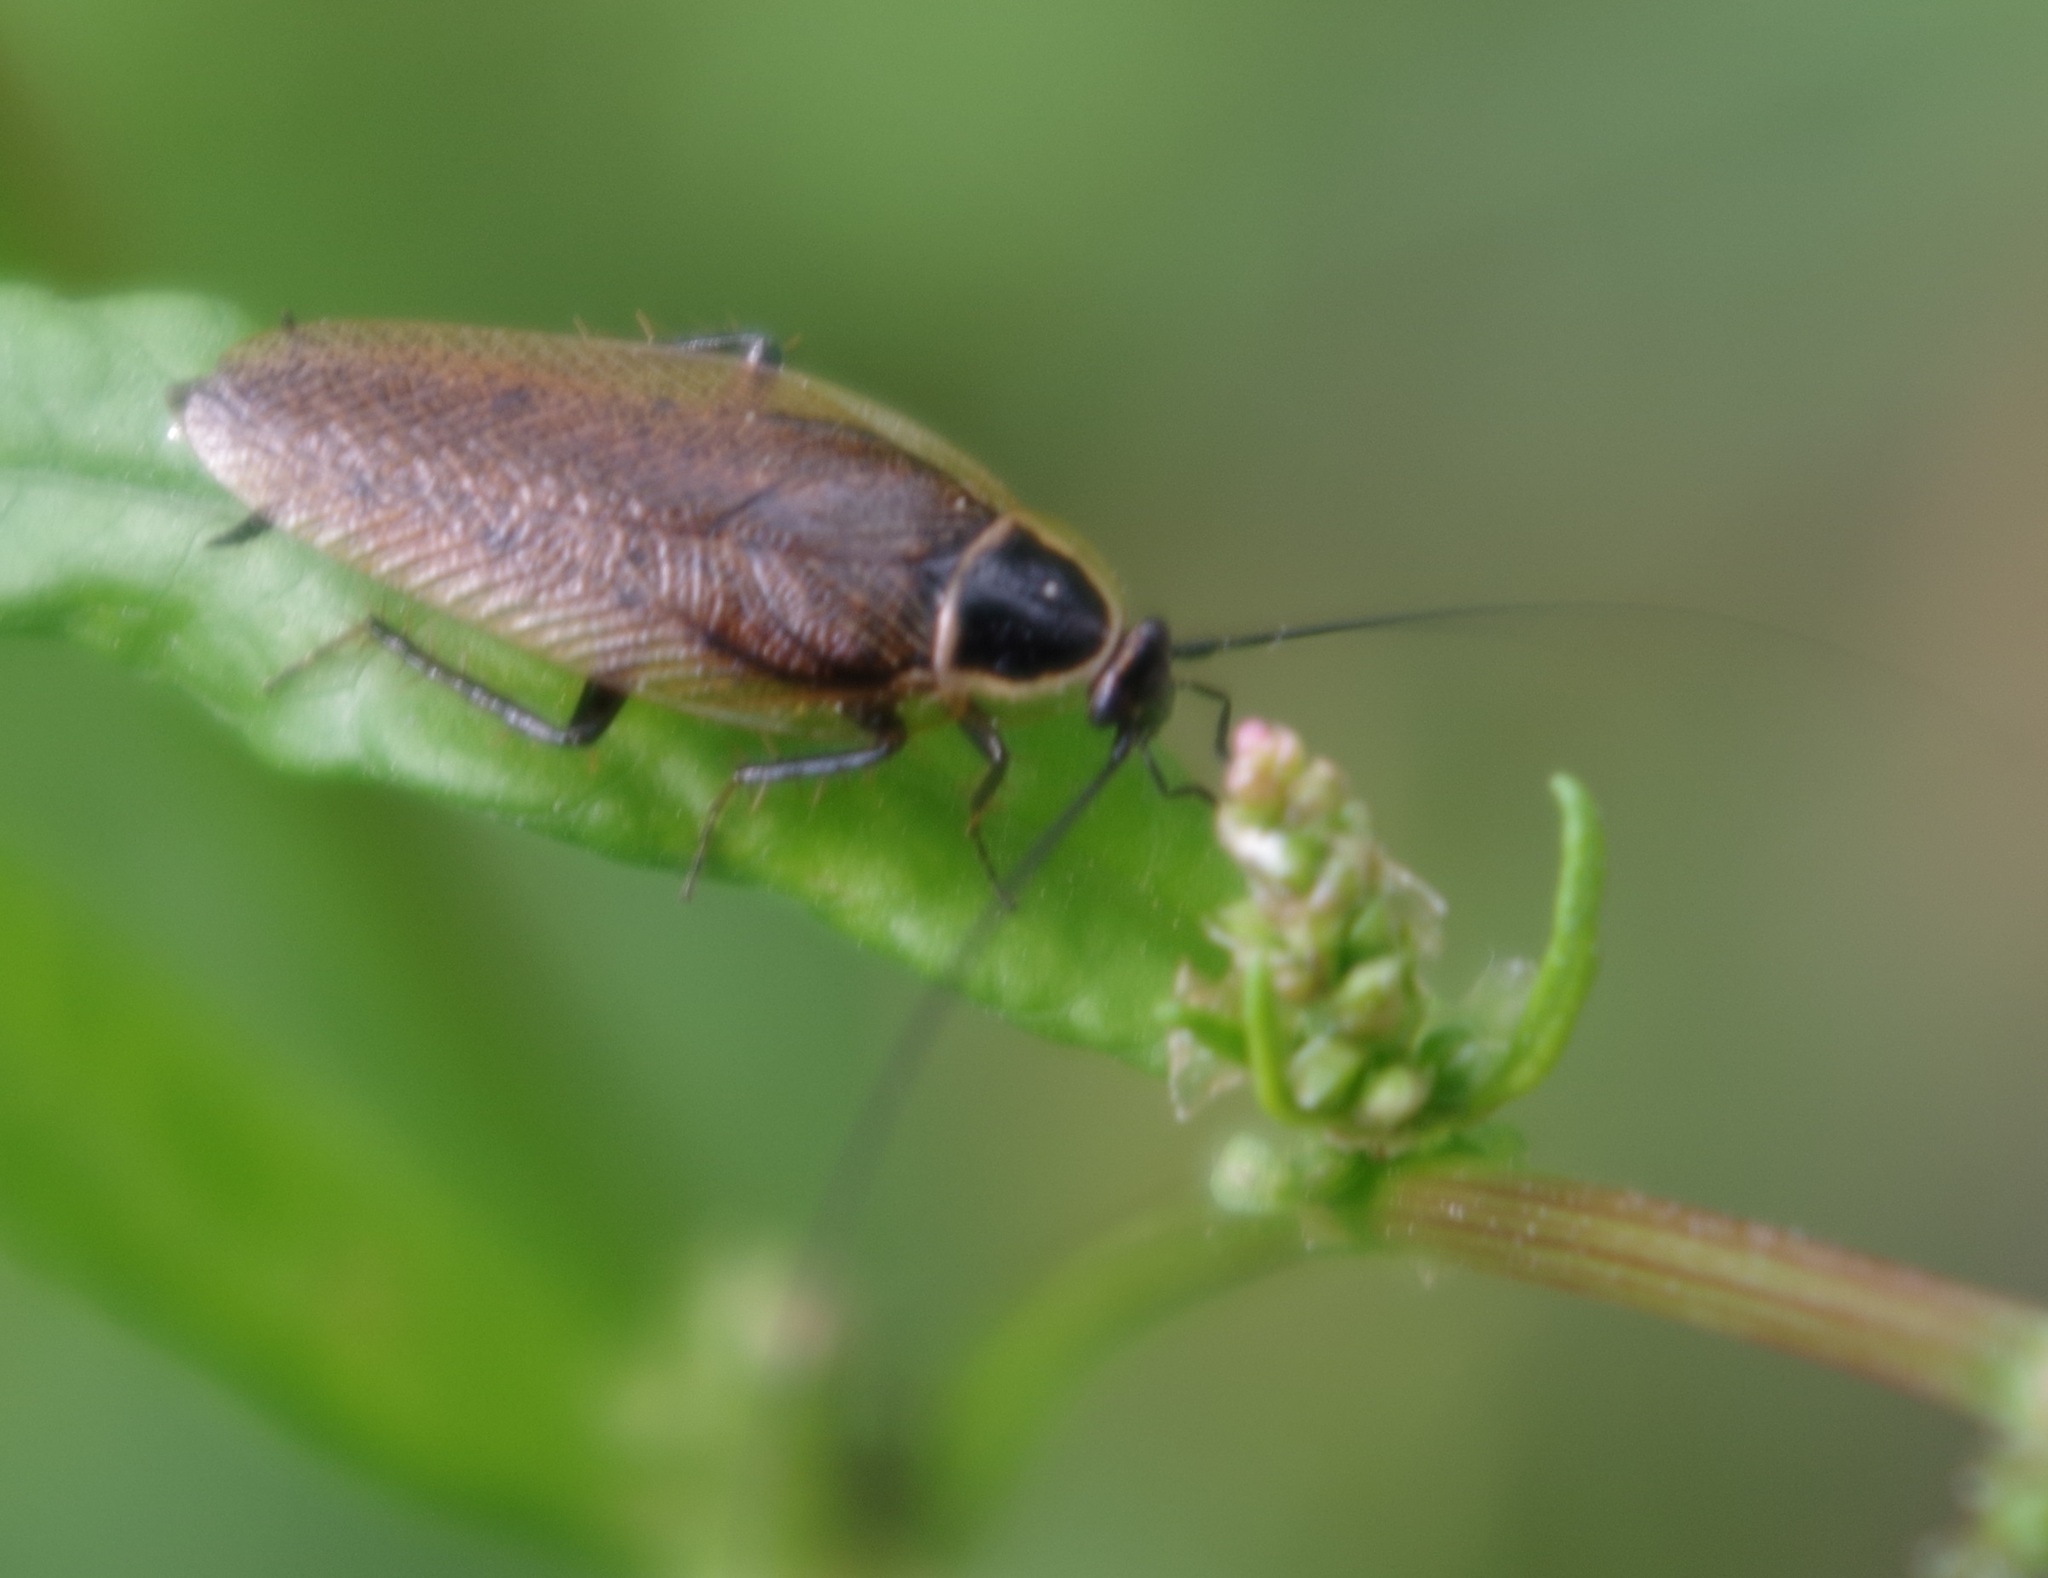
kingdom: Animalia
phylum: Arthropoda
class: Insecta
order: Blattodea
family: Ectobiidae
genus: Ectobius
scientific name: Ectobius sylvestris
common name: Forest cockroach
